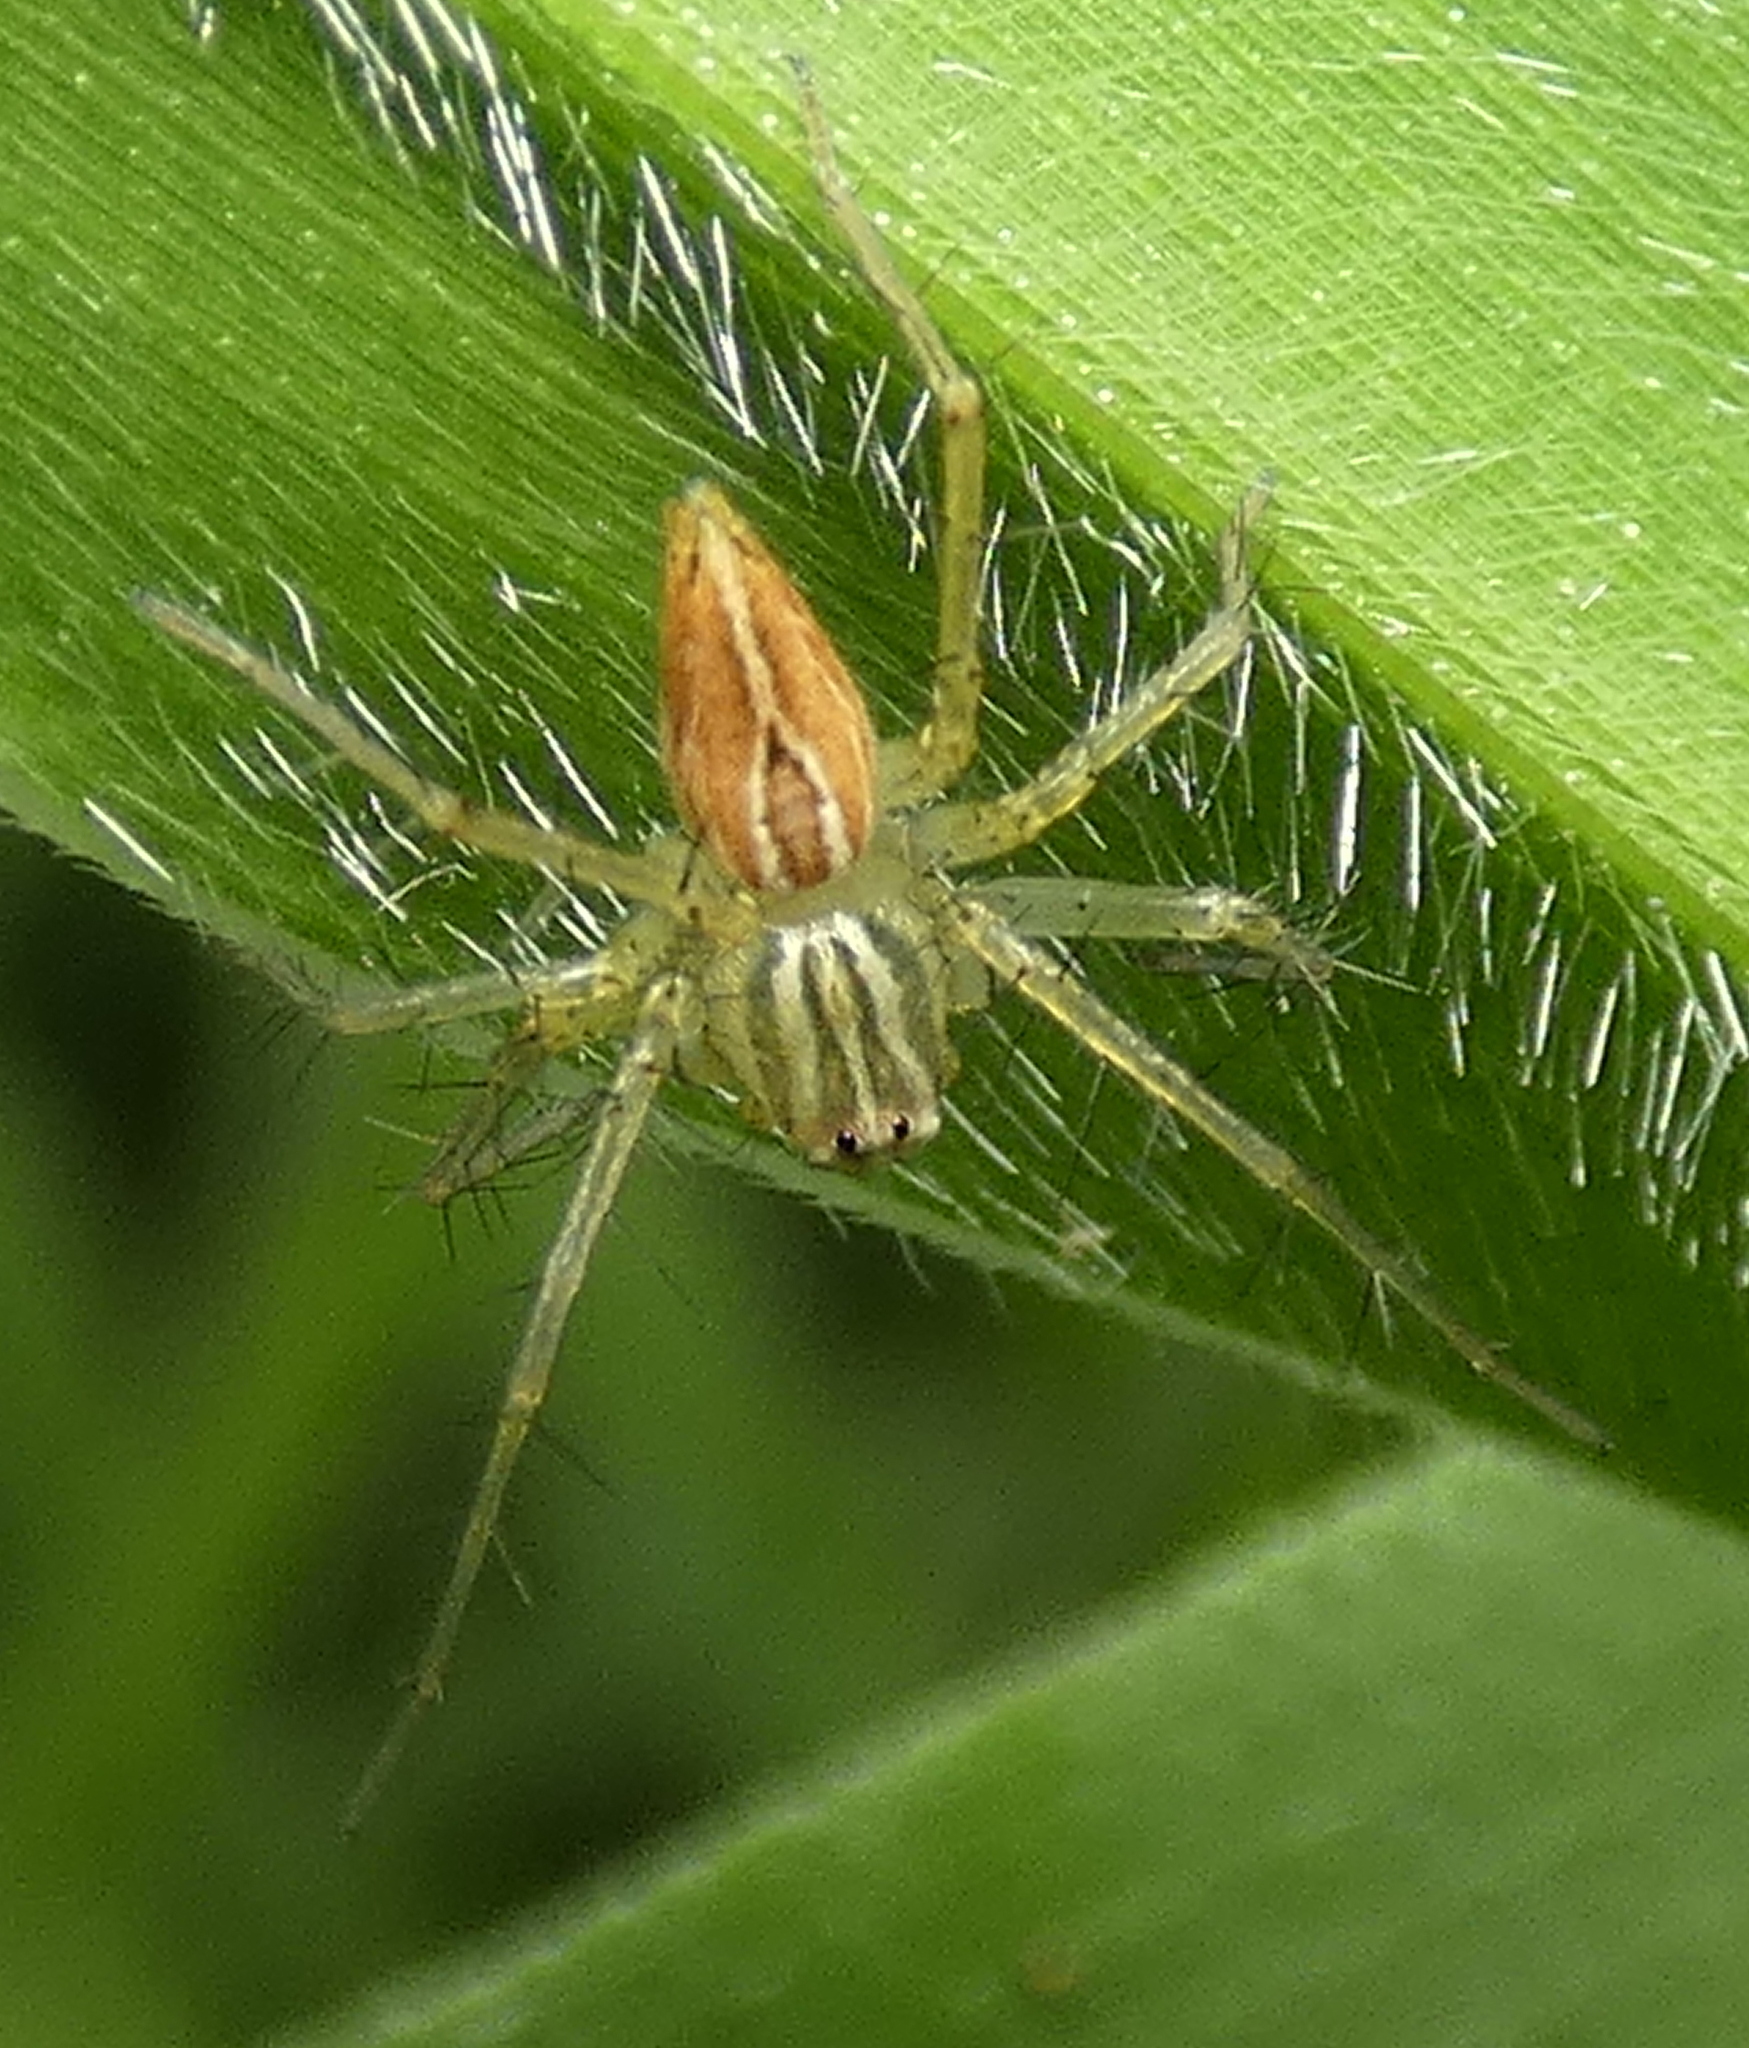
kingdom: Animalia
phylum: Arthropoda
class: Arachnida
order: Araneae
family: Oxyopidae
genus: Oxyopes
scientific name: Oxyopes salticus
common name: Lynx spiders
